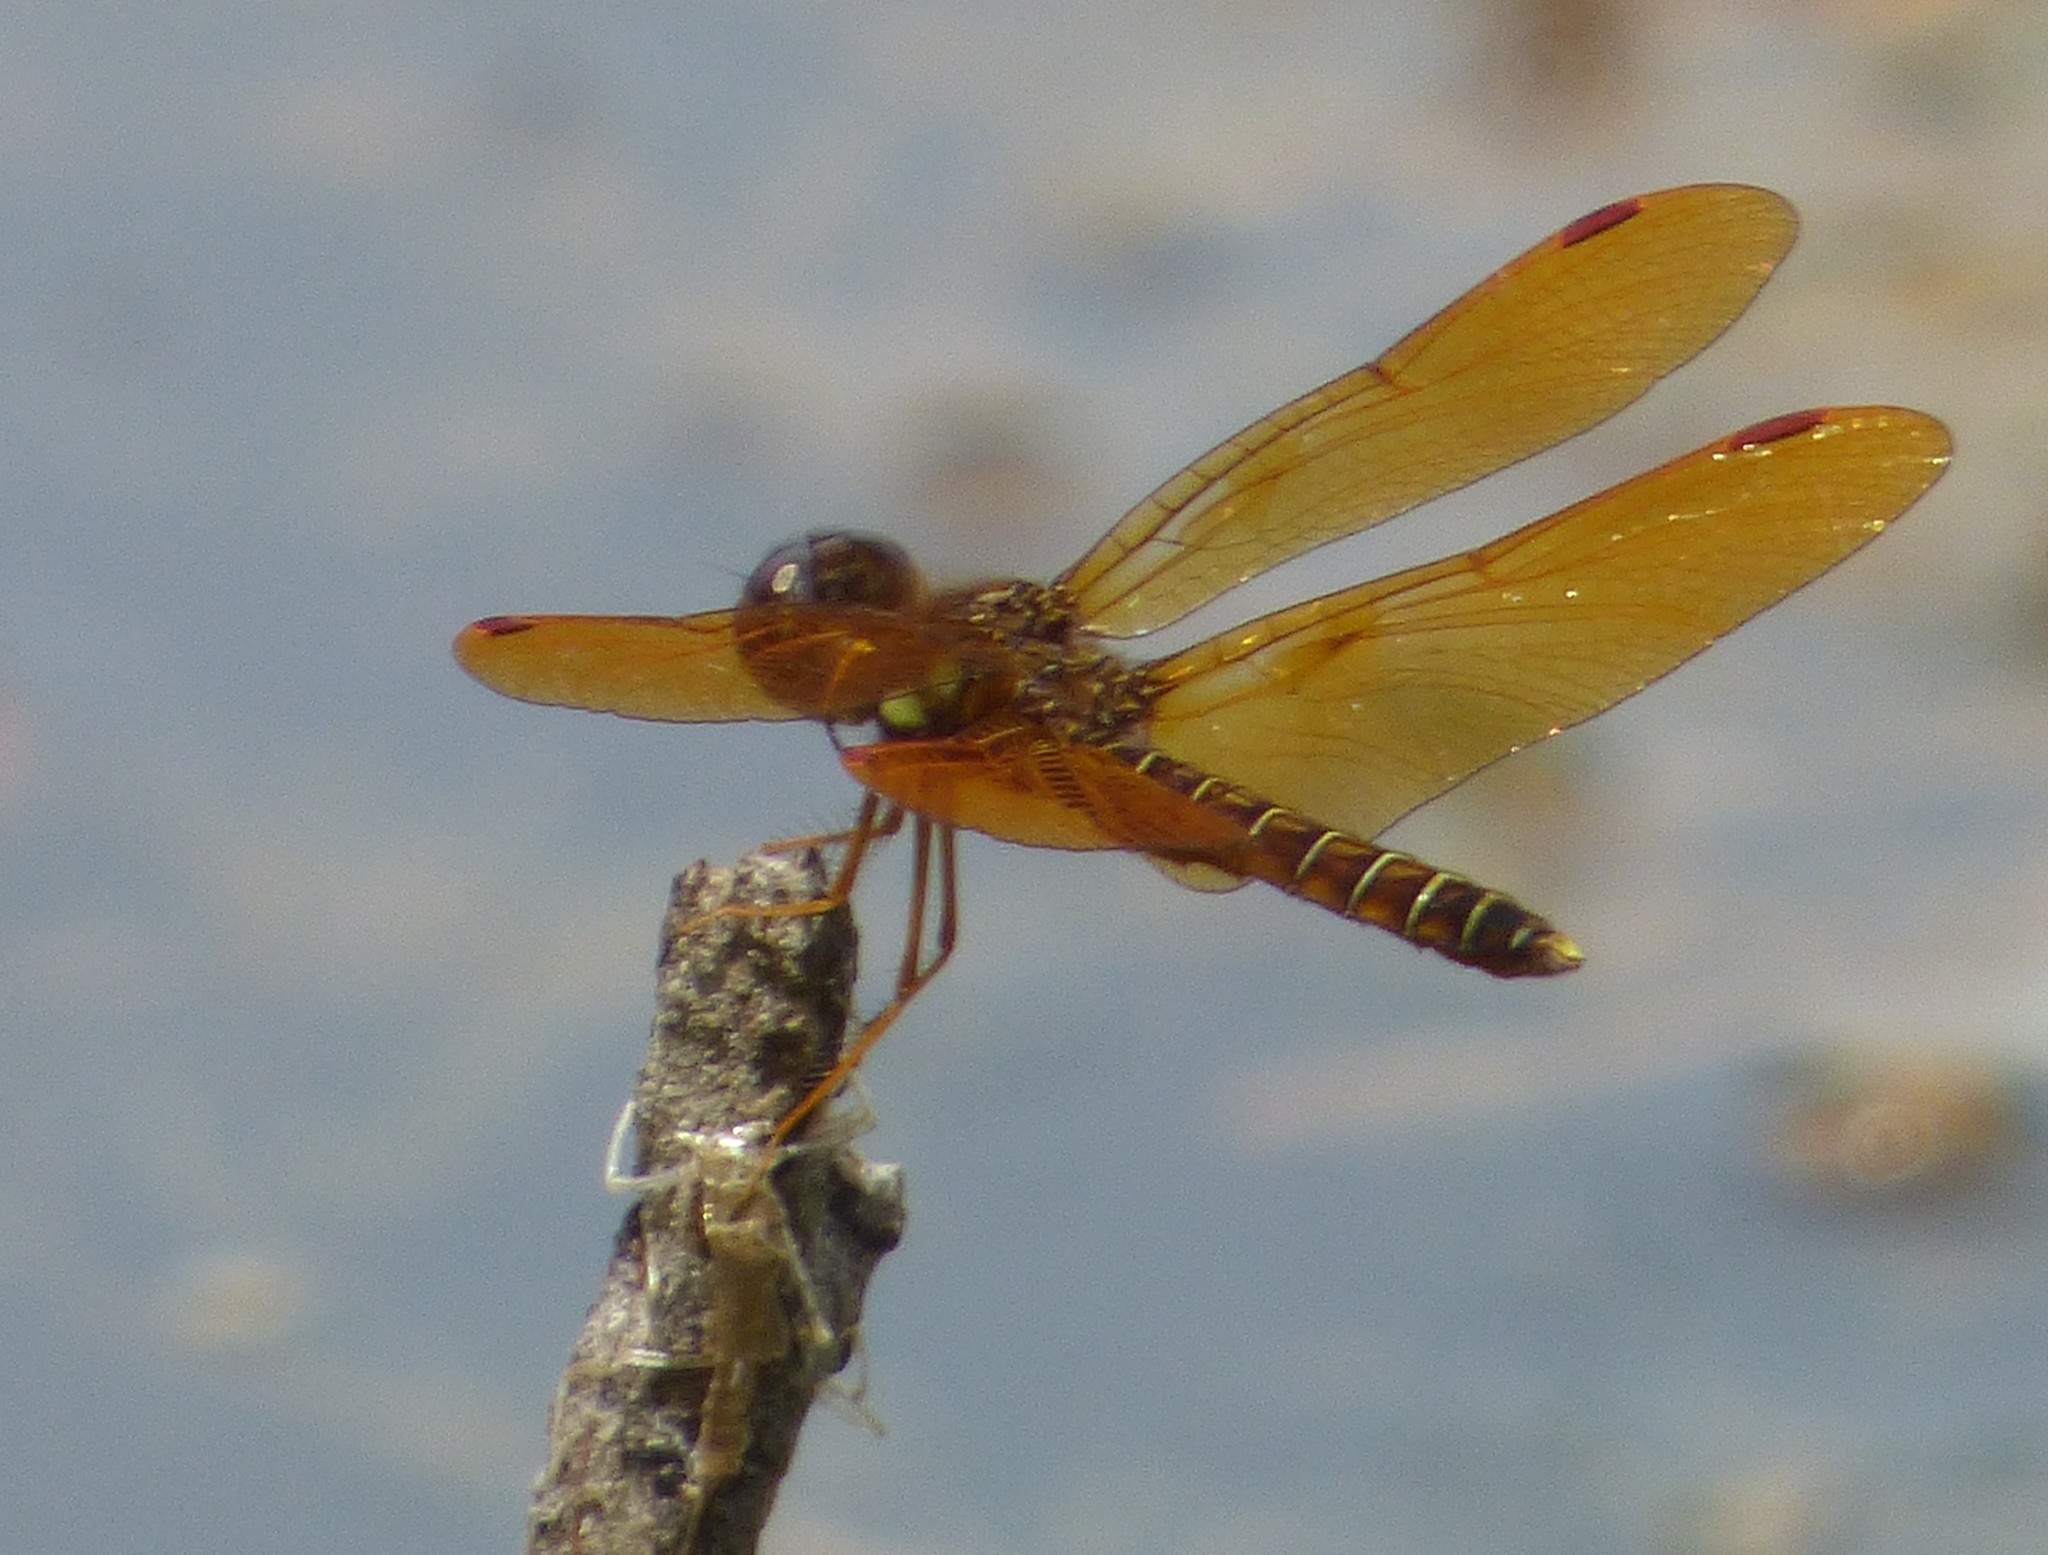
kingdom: Animalia
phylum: Arthropoda
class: Insecta
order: Odonata
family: Libellulidae
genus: Perithemis
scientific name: Perithemis tenera
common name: Eastern amberwing
